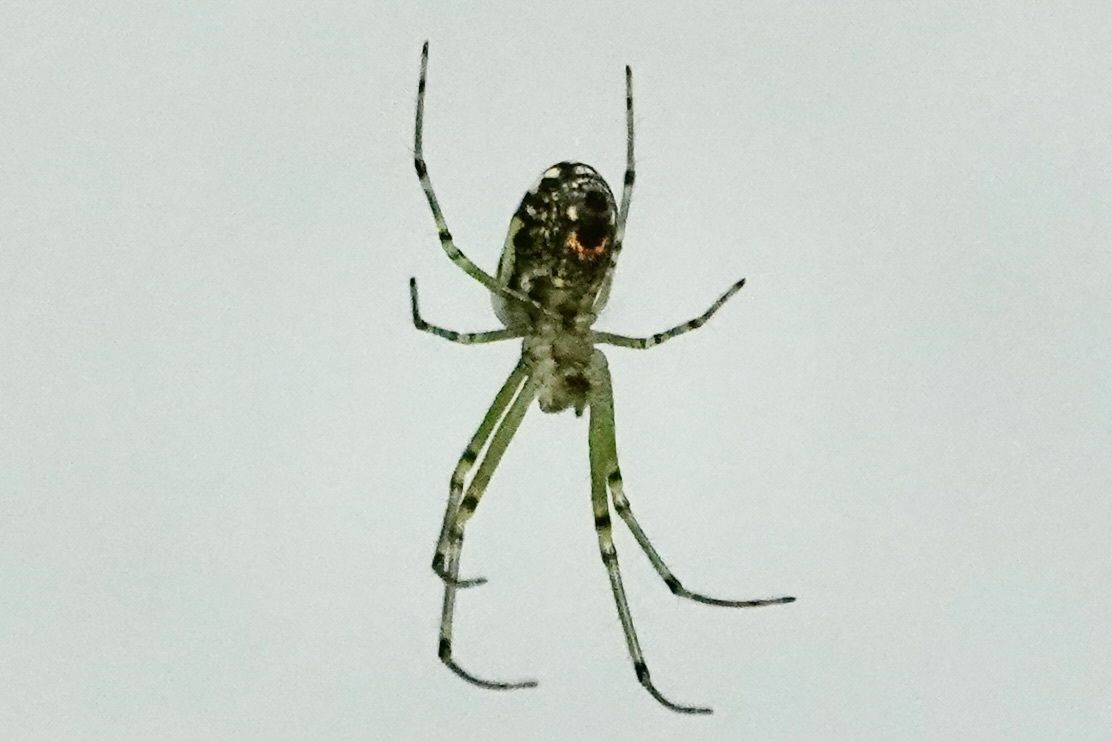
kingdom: Animalia
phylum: Arthropoda
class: Arachnida
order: Araneae
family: Tetragnathidae
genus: Leucauge
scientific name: Leucauge venusta
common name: Longjawed orb weavers
